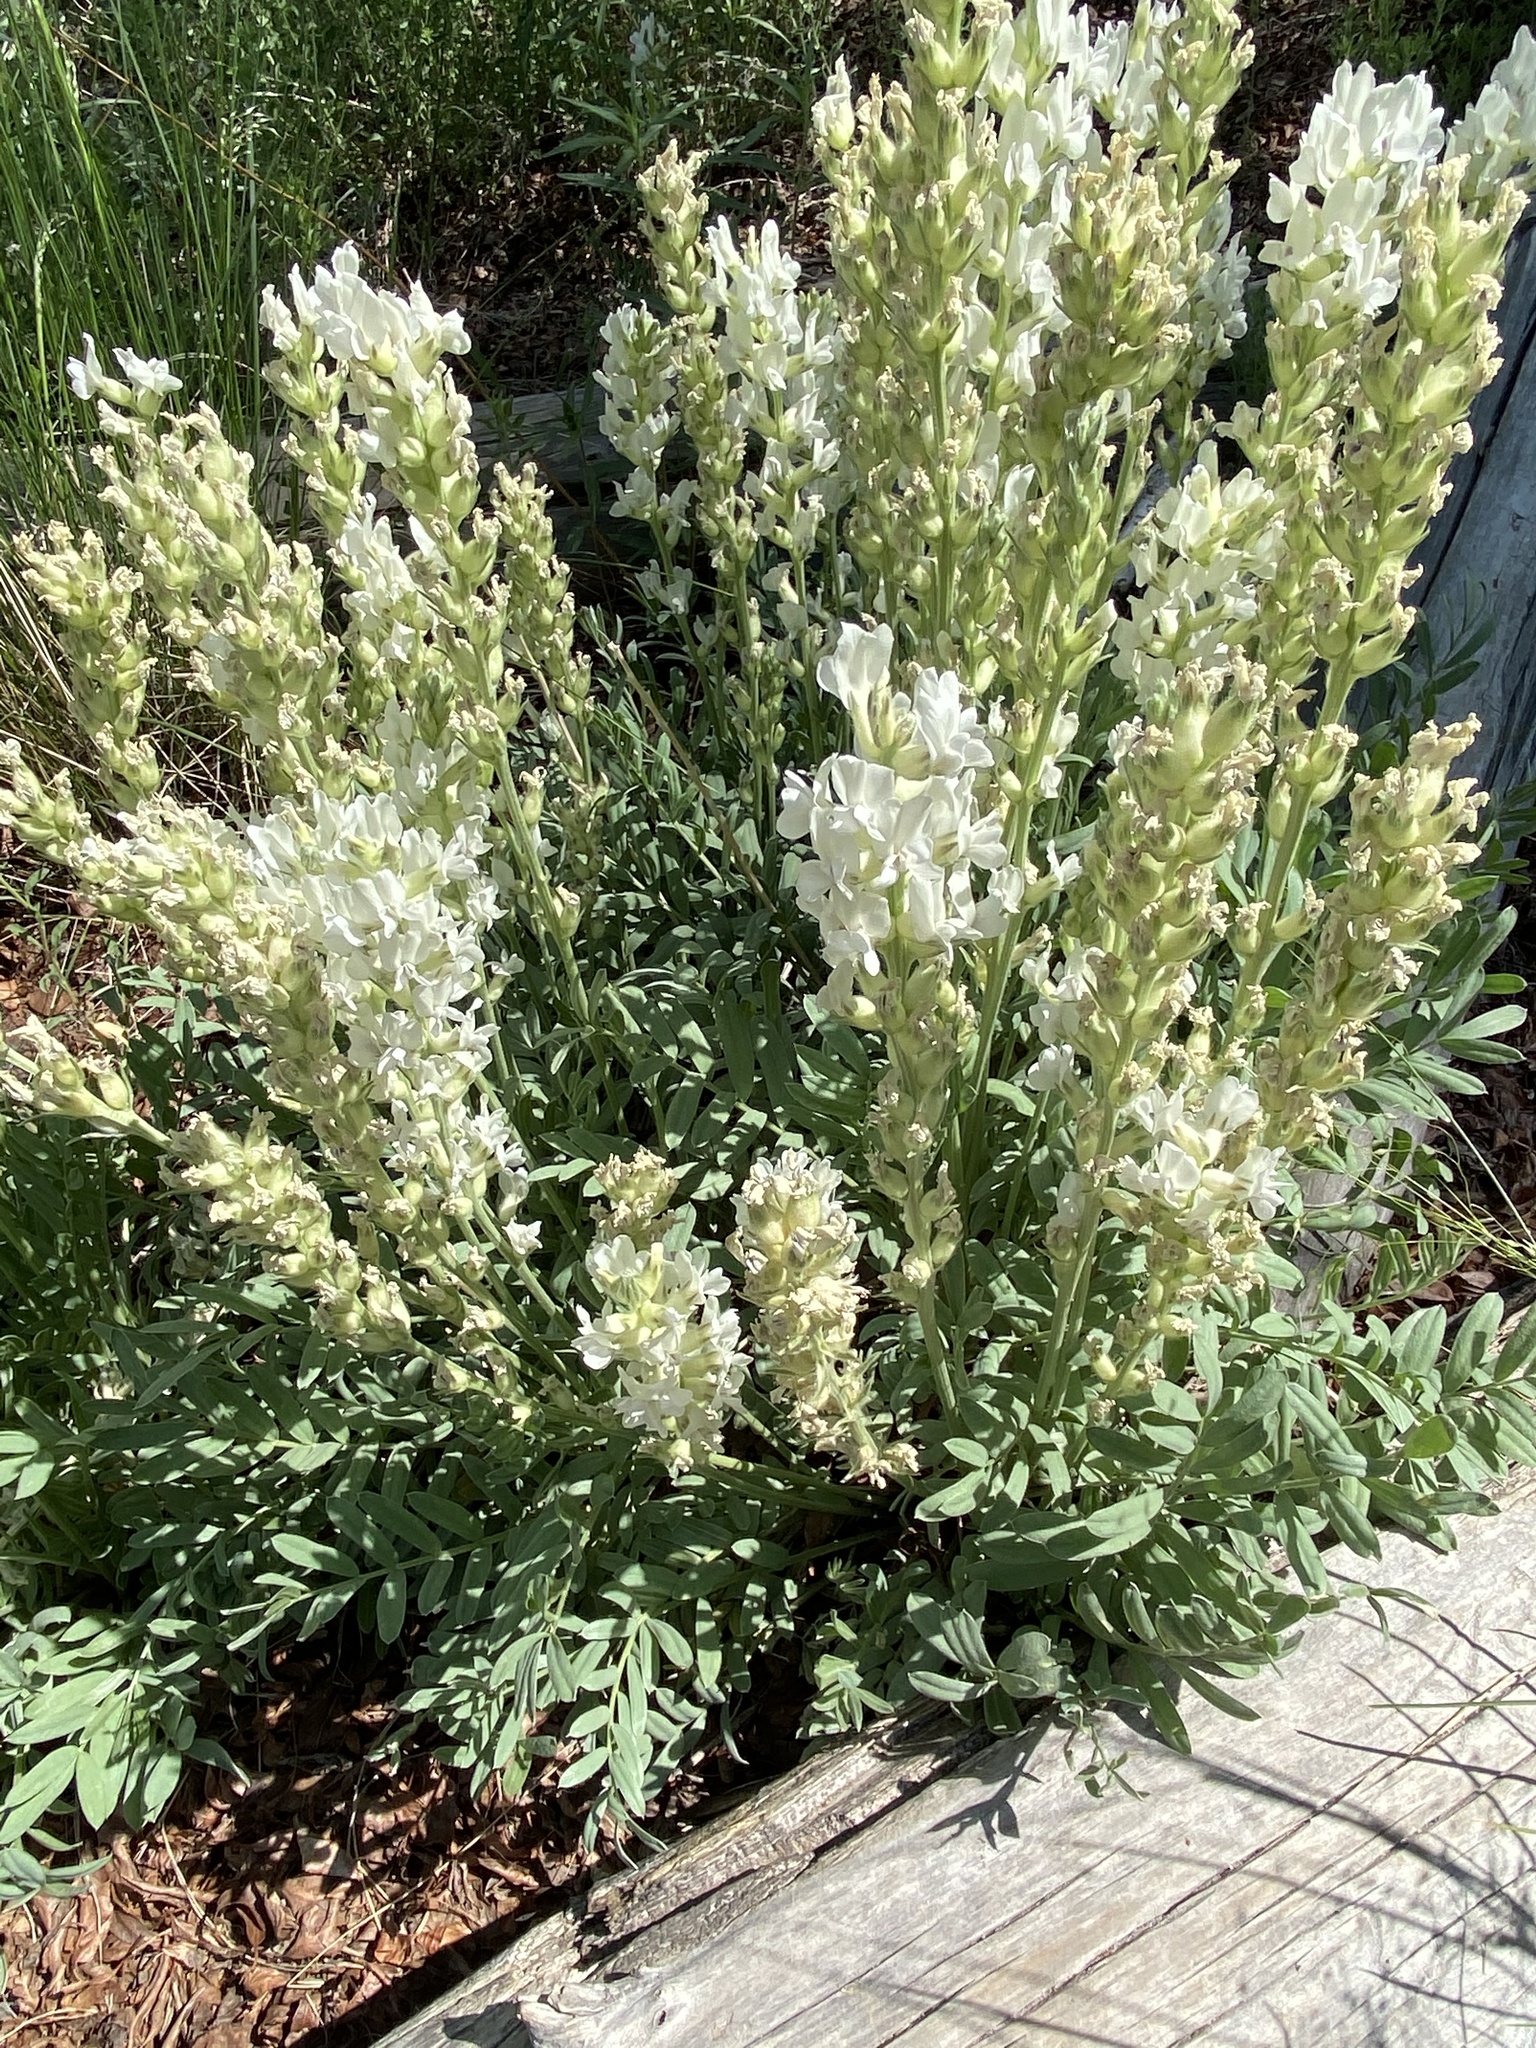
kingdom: Plantae
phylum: Tracheophyta
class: Magnoliopsida
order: Fabales
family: Fabaceae
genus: Oxytropis
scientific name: Oxytropis sericea
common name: Silky locoweed
